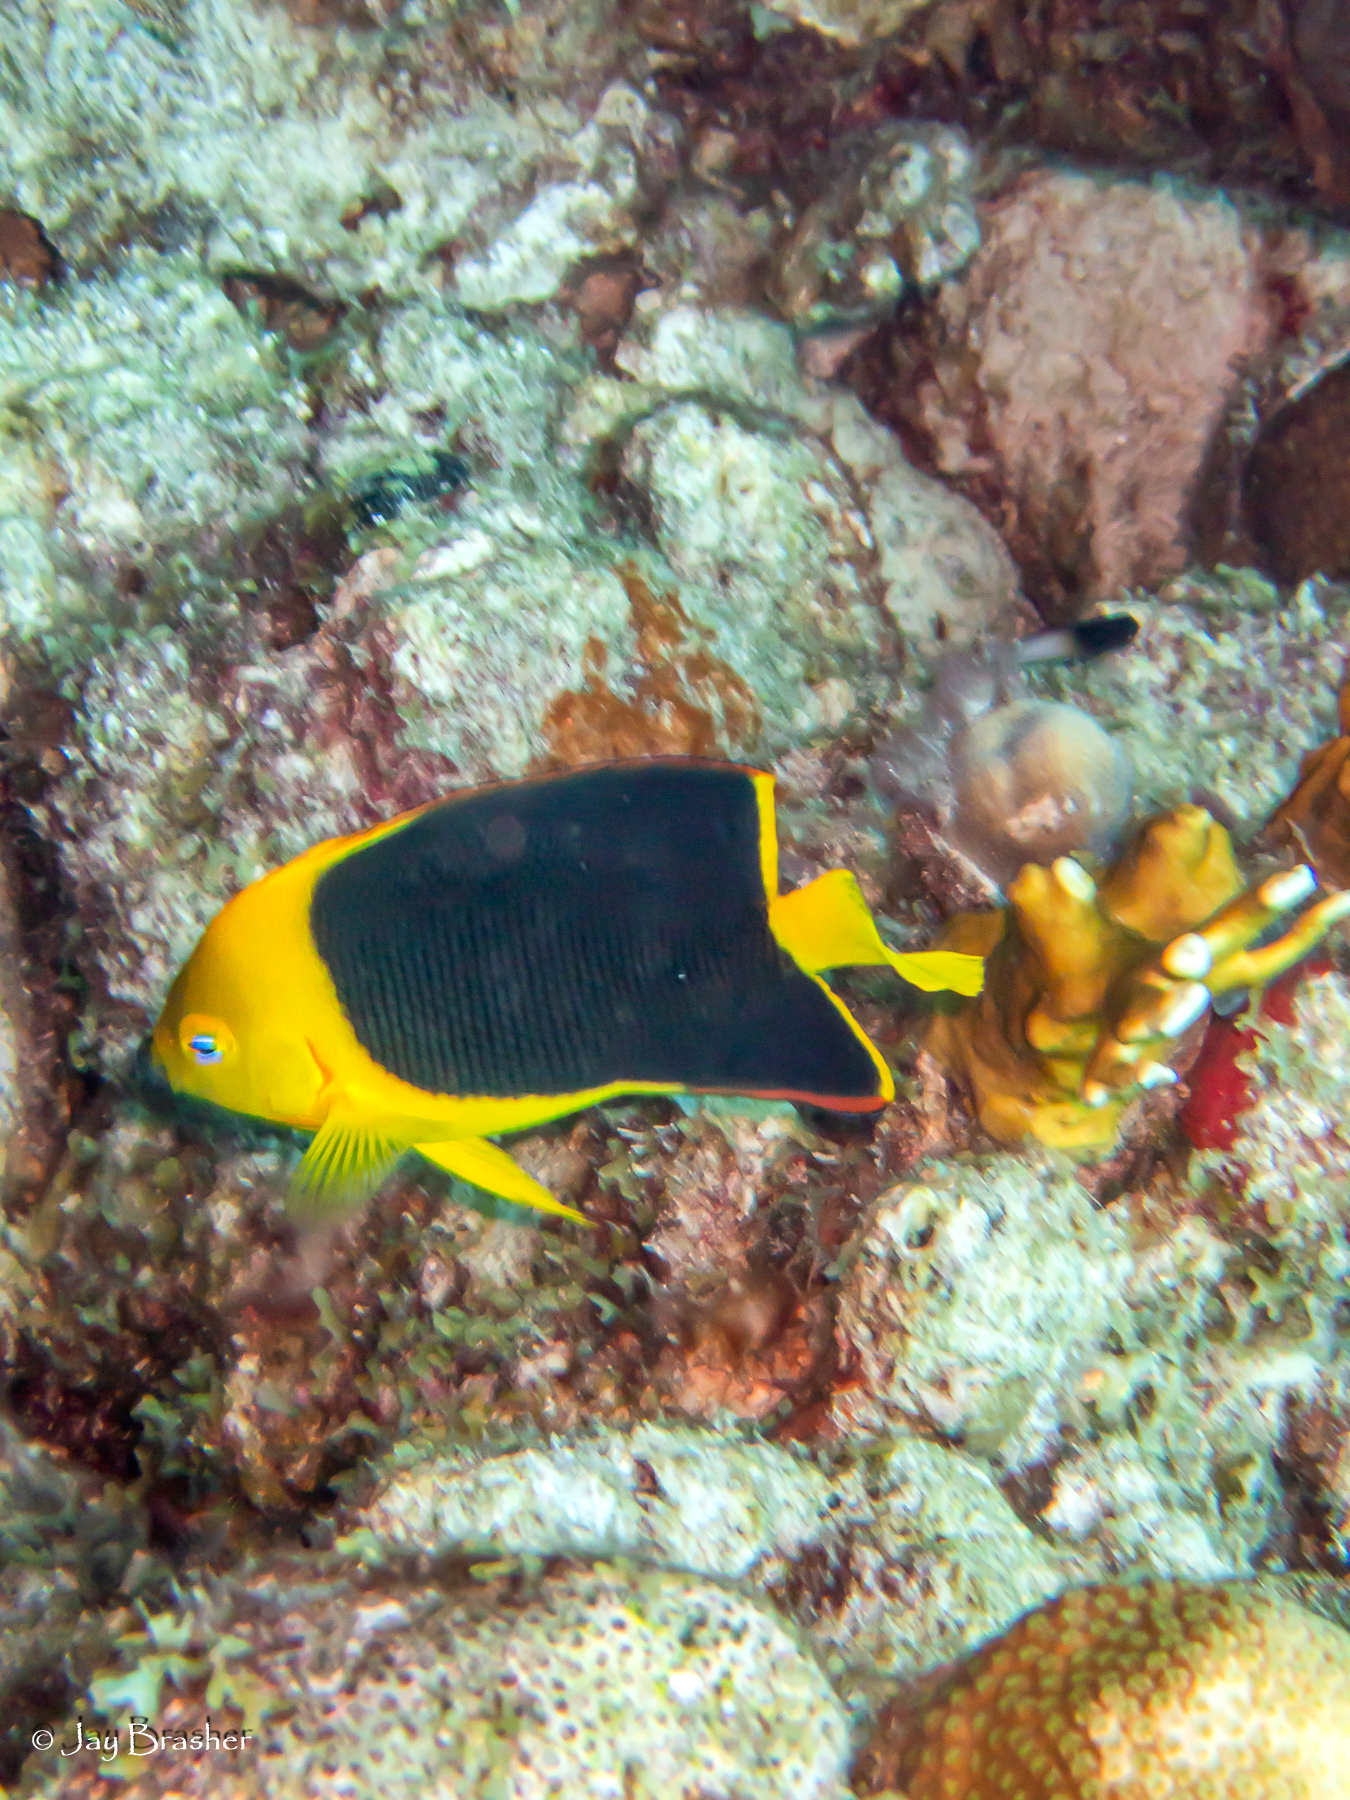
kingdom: Animalia
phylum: Chordata
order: Perciformes
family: Pomacanthidae
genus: Holacanthus
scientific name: Holacanthus tricolor
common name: Rock beauty
